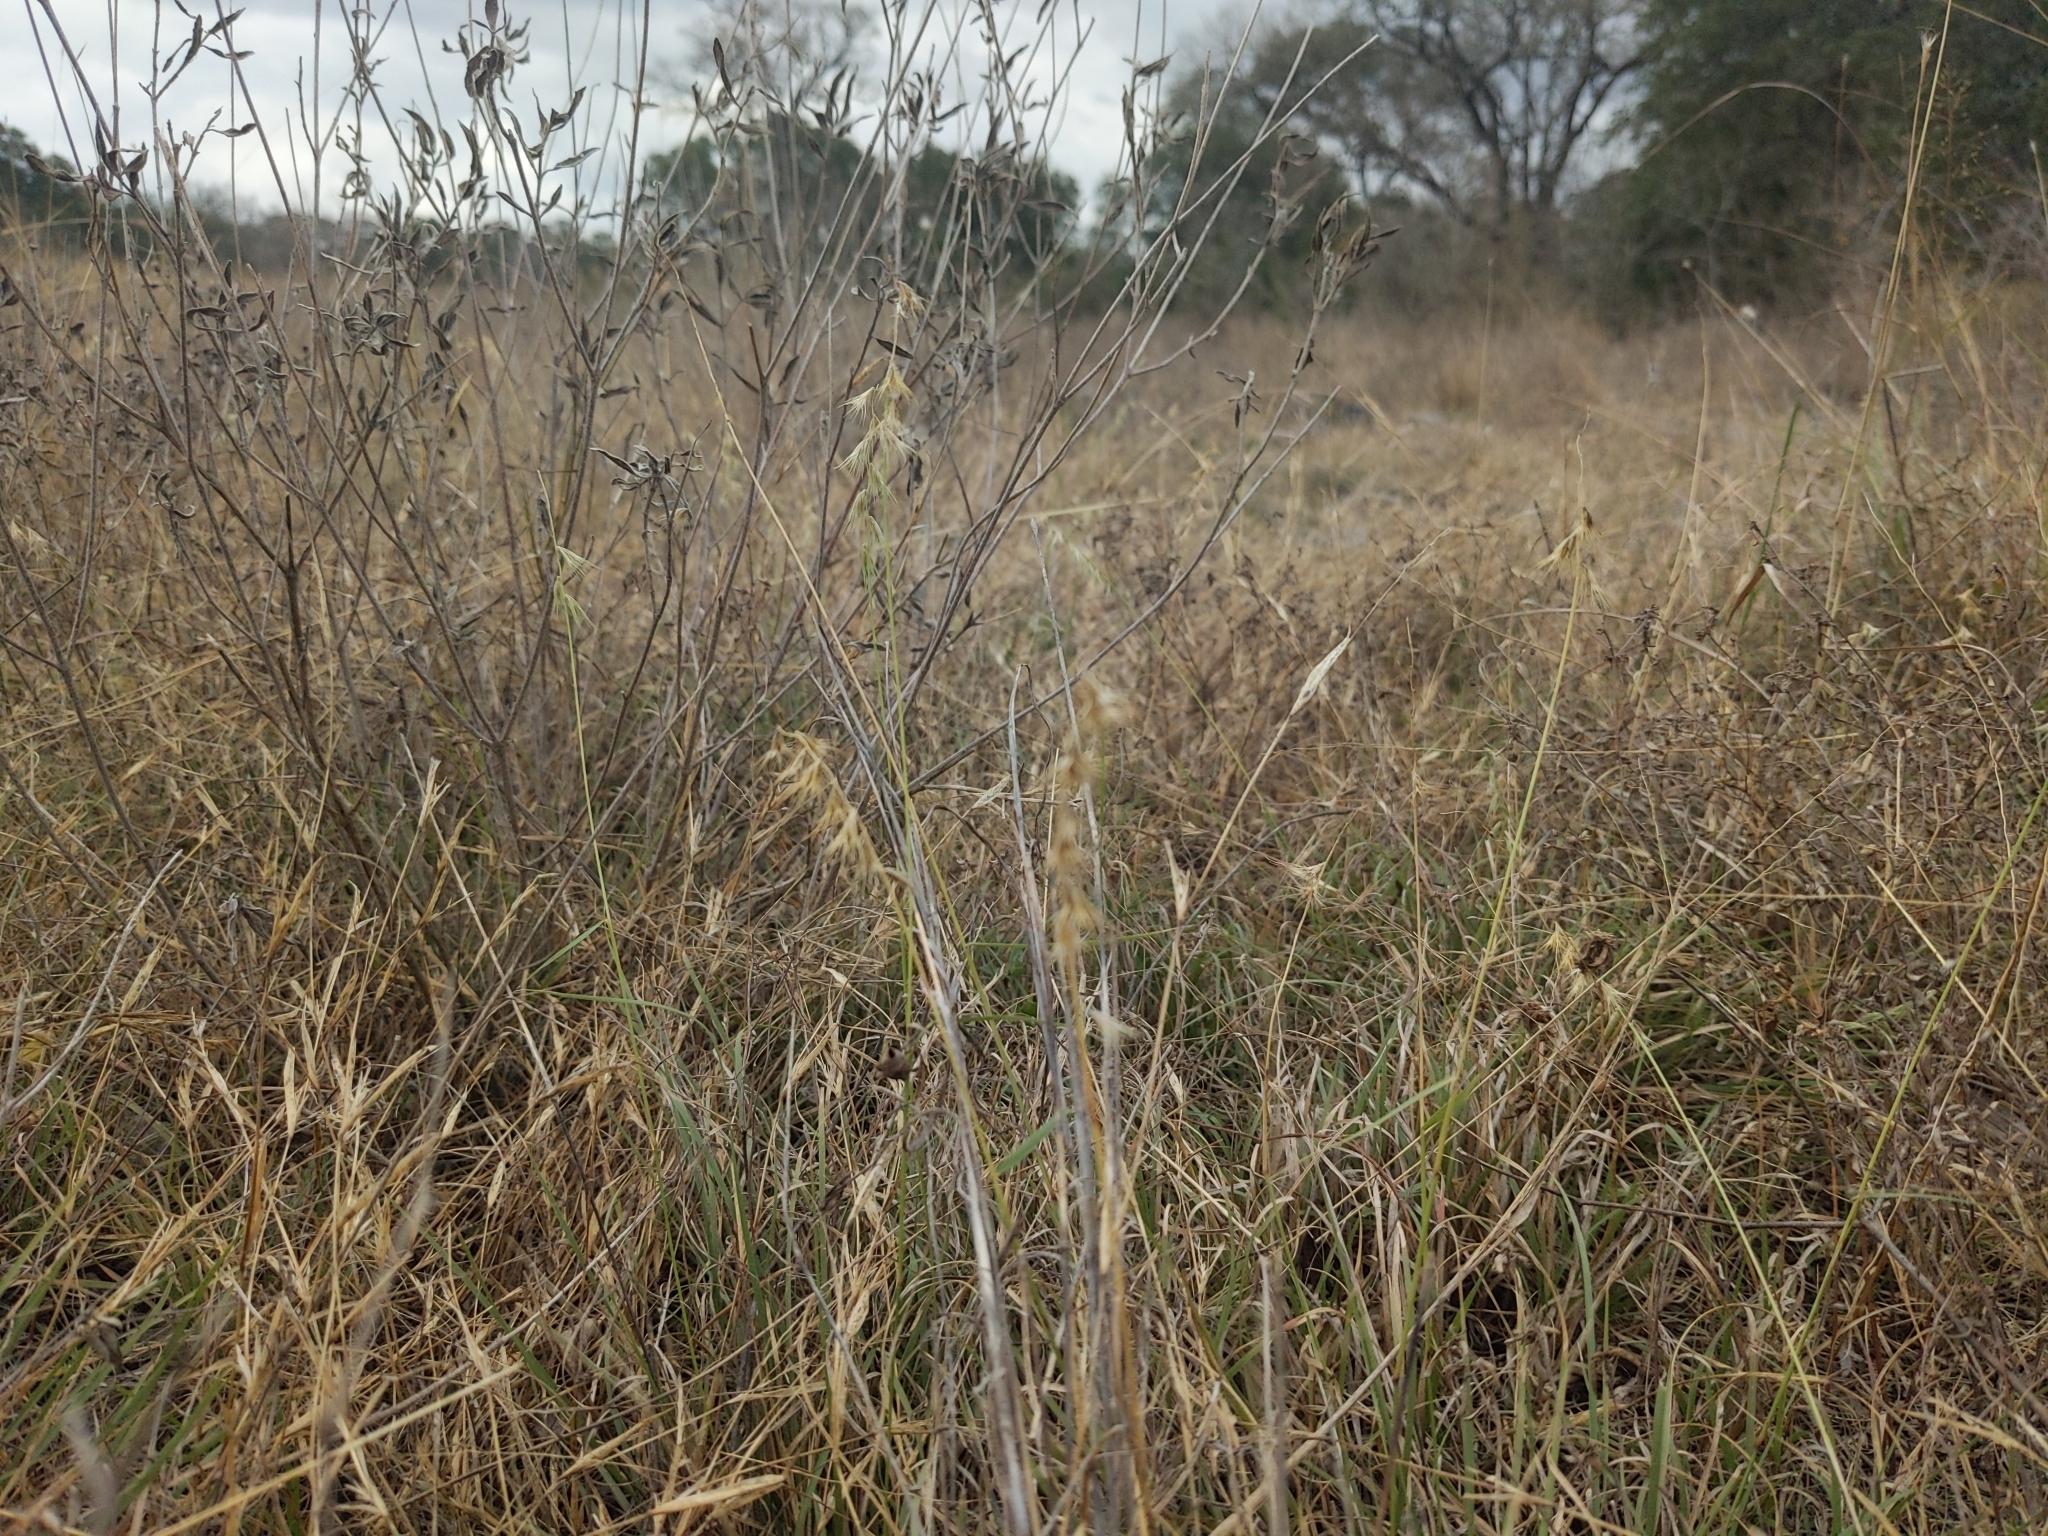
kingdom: Plantae
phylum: Tracheophyta
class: Liliopsida
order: Poales
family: Poaceae
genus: Bouteloua
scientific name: Bouteloua rigidiseta
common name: Texas grama
